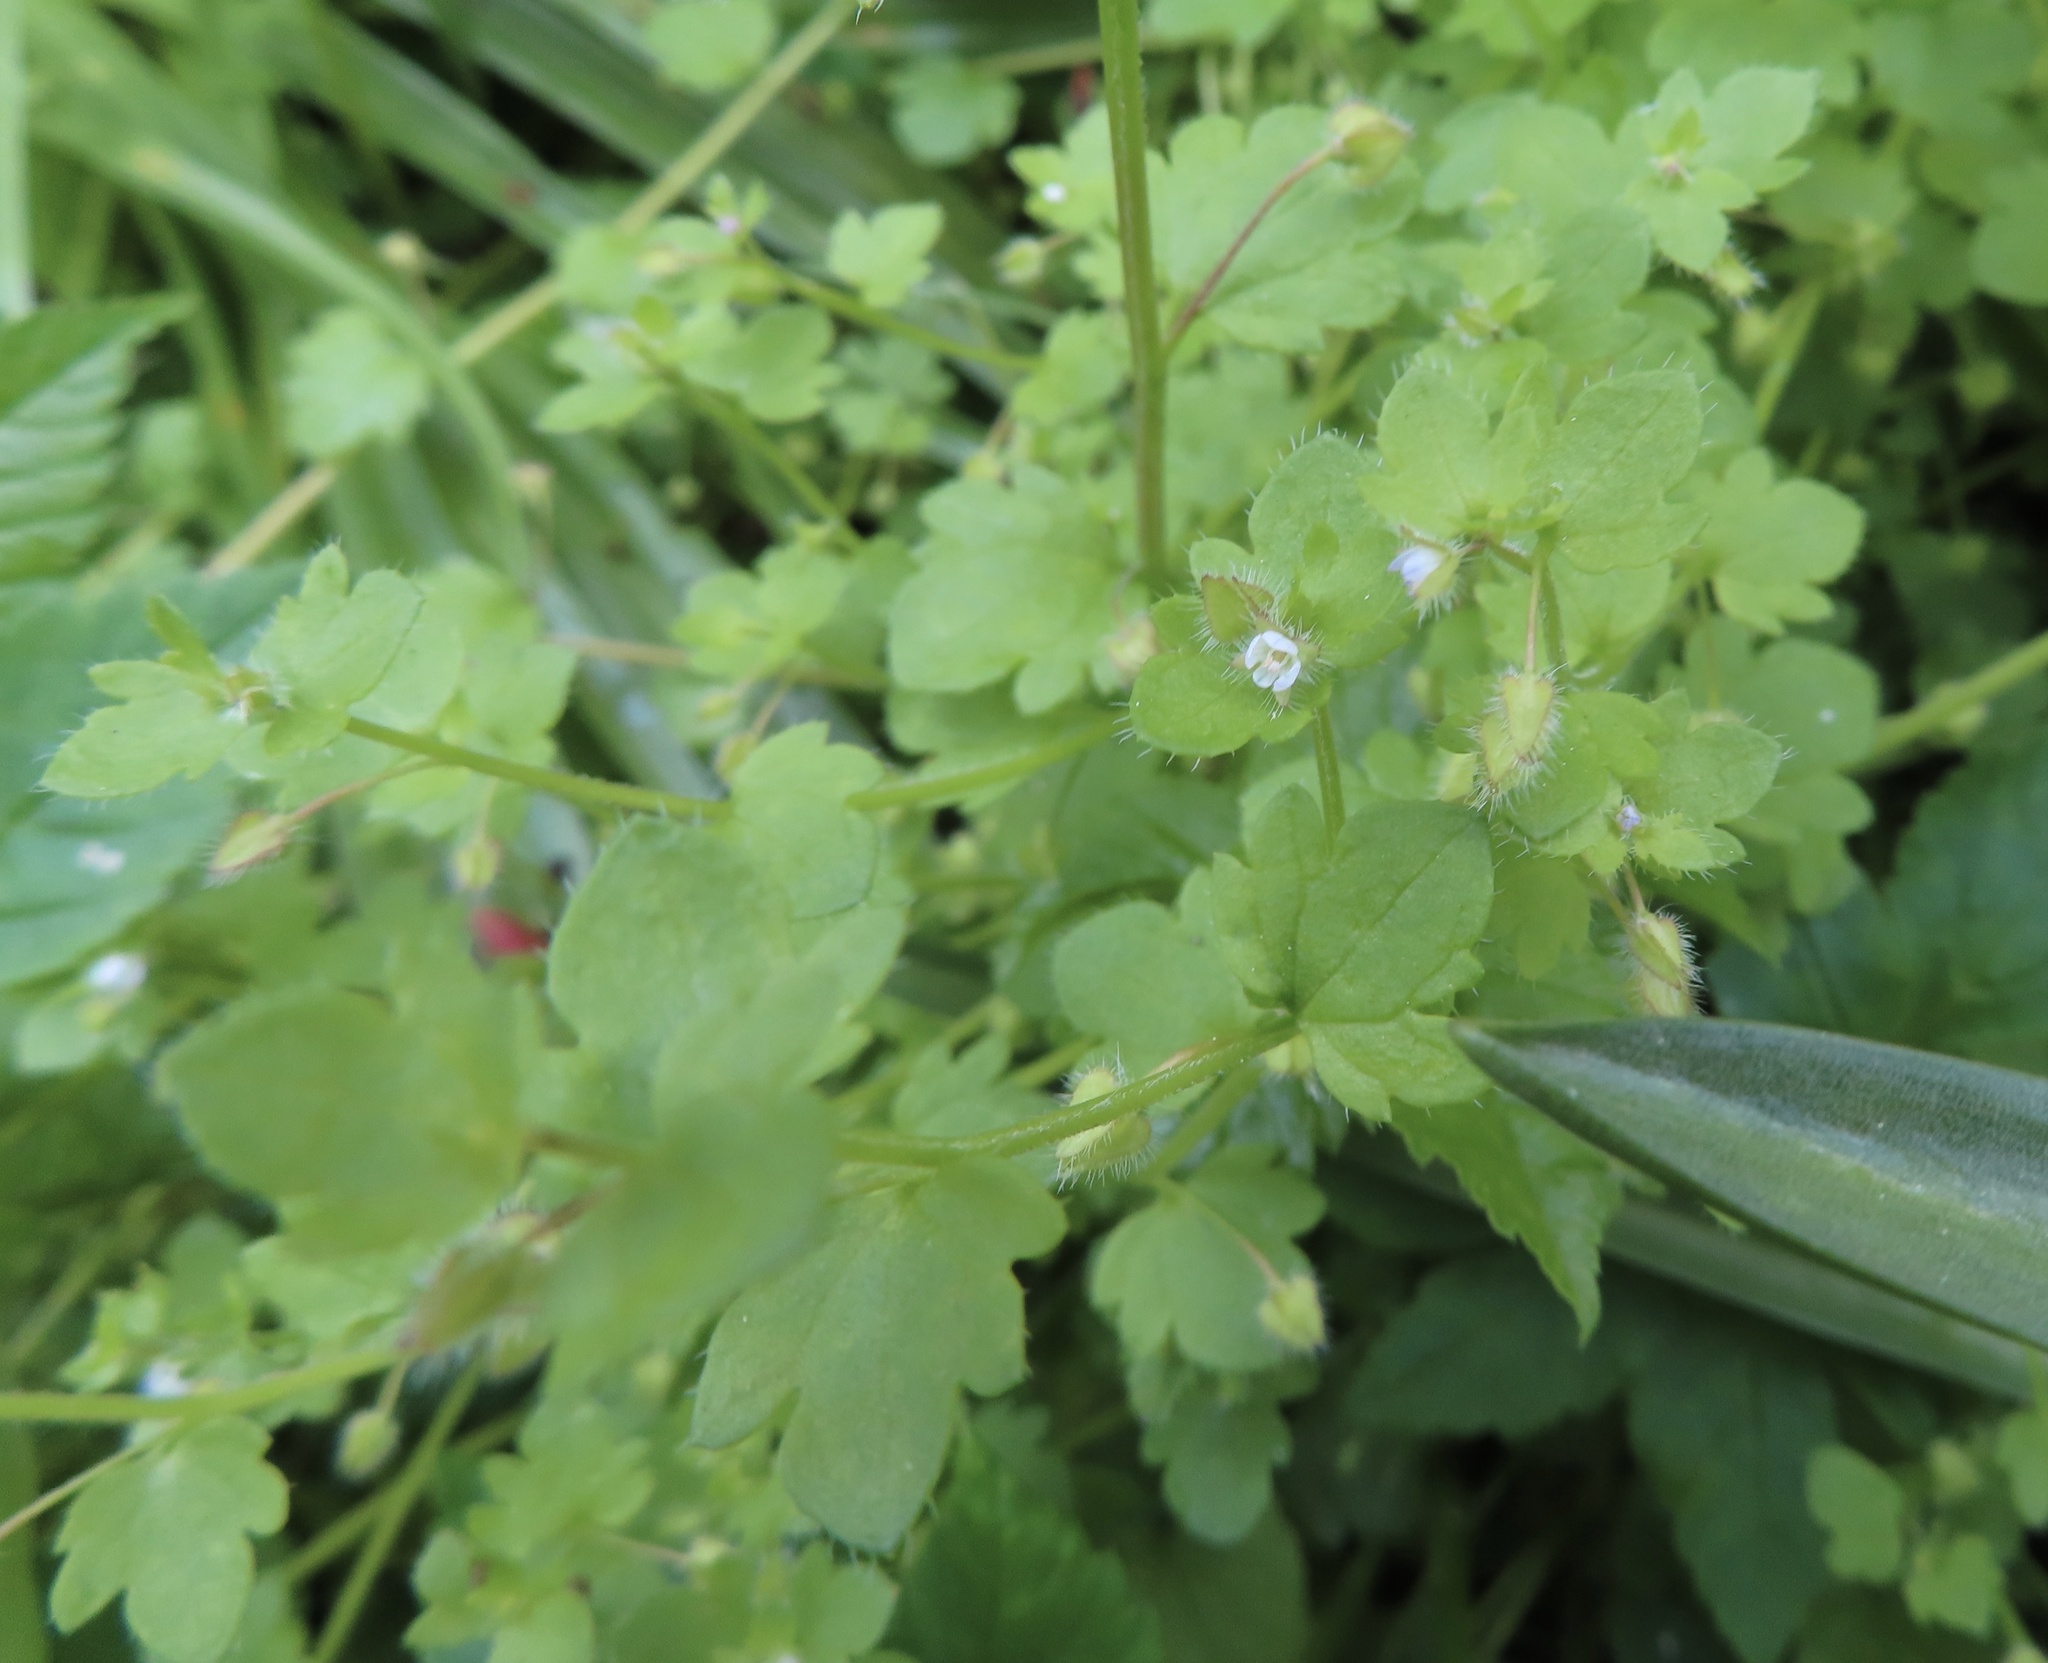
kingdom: Plantae
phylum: Tracheophyta
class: Magnoliopsida
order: Lamiales
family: Plantaginaceae
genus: Veronica
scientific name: Veronica sublobata
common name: False ivy-leaved speedwell
